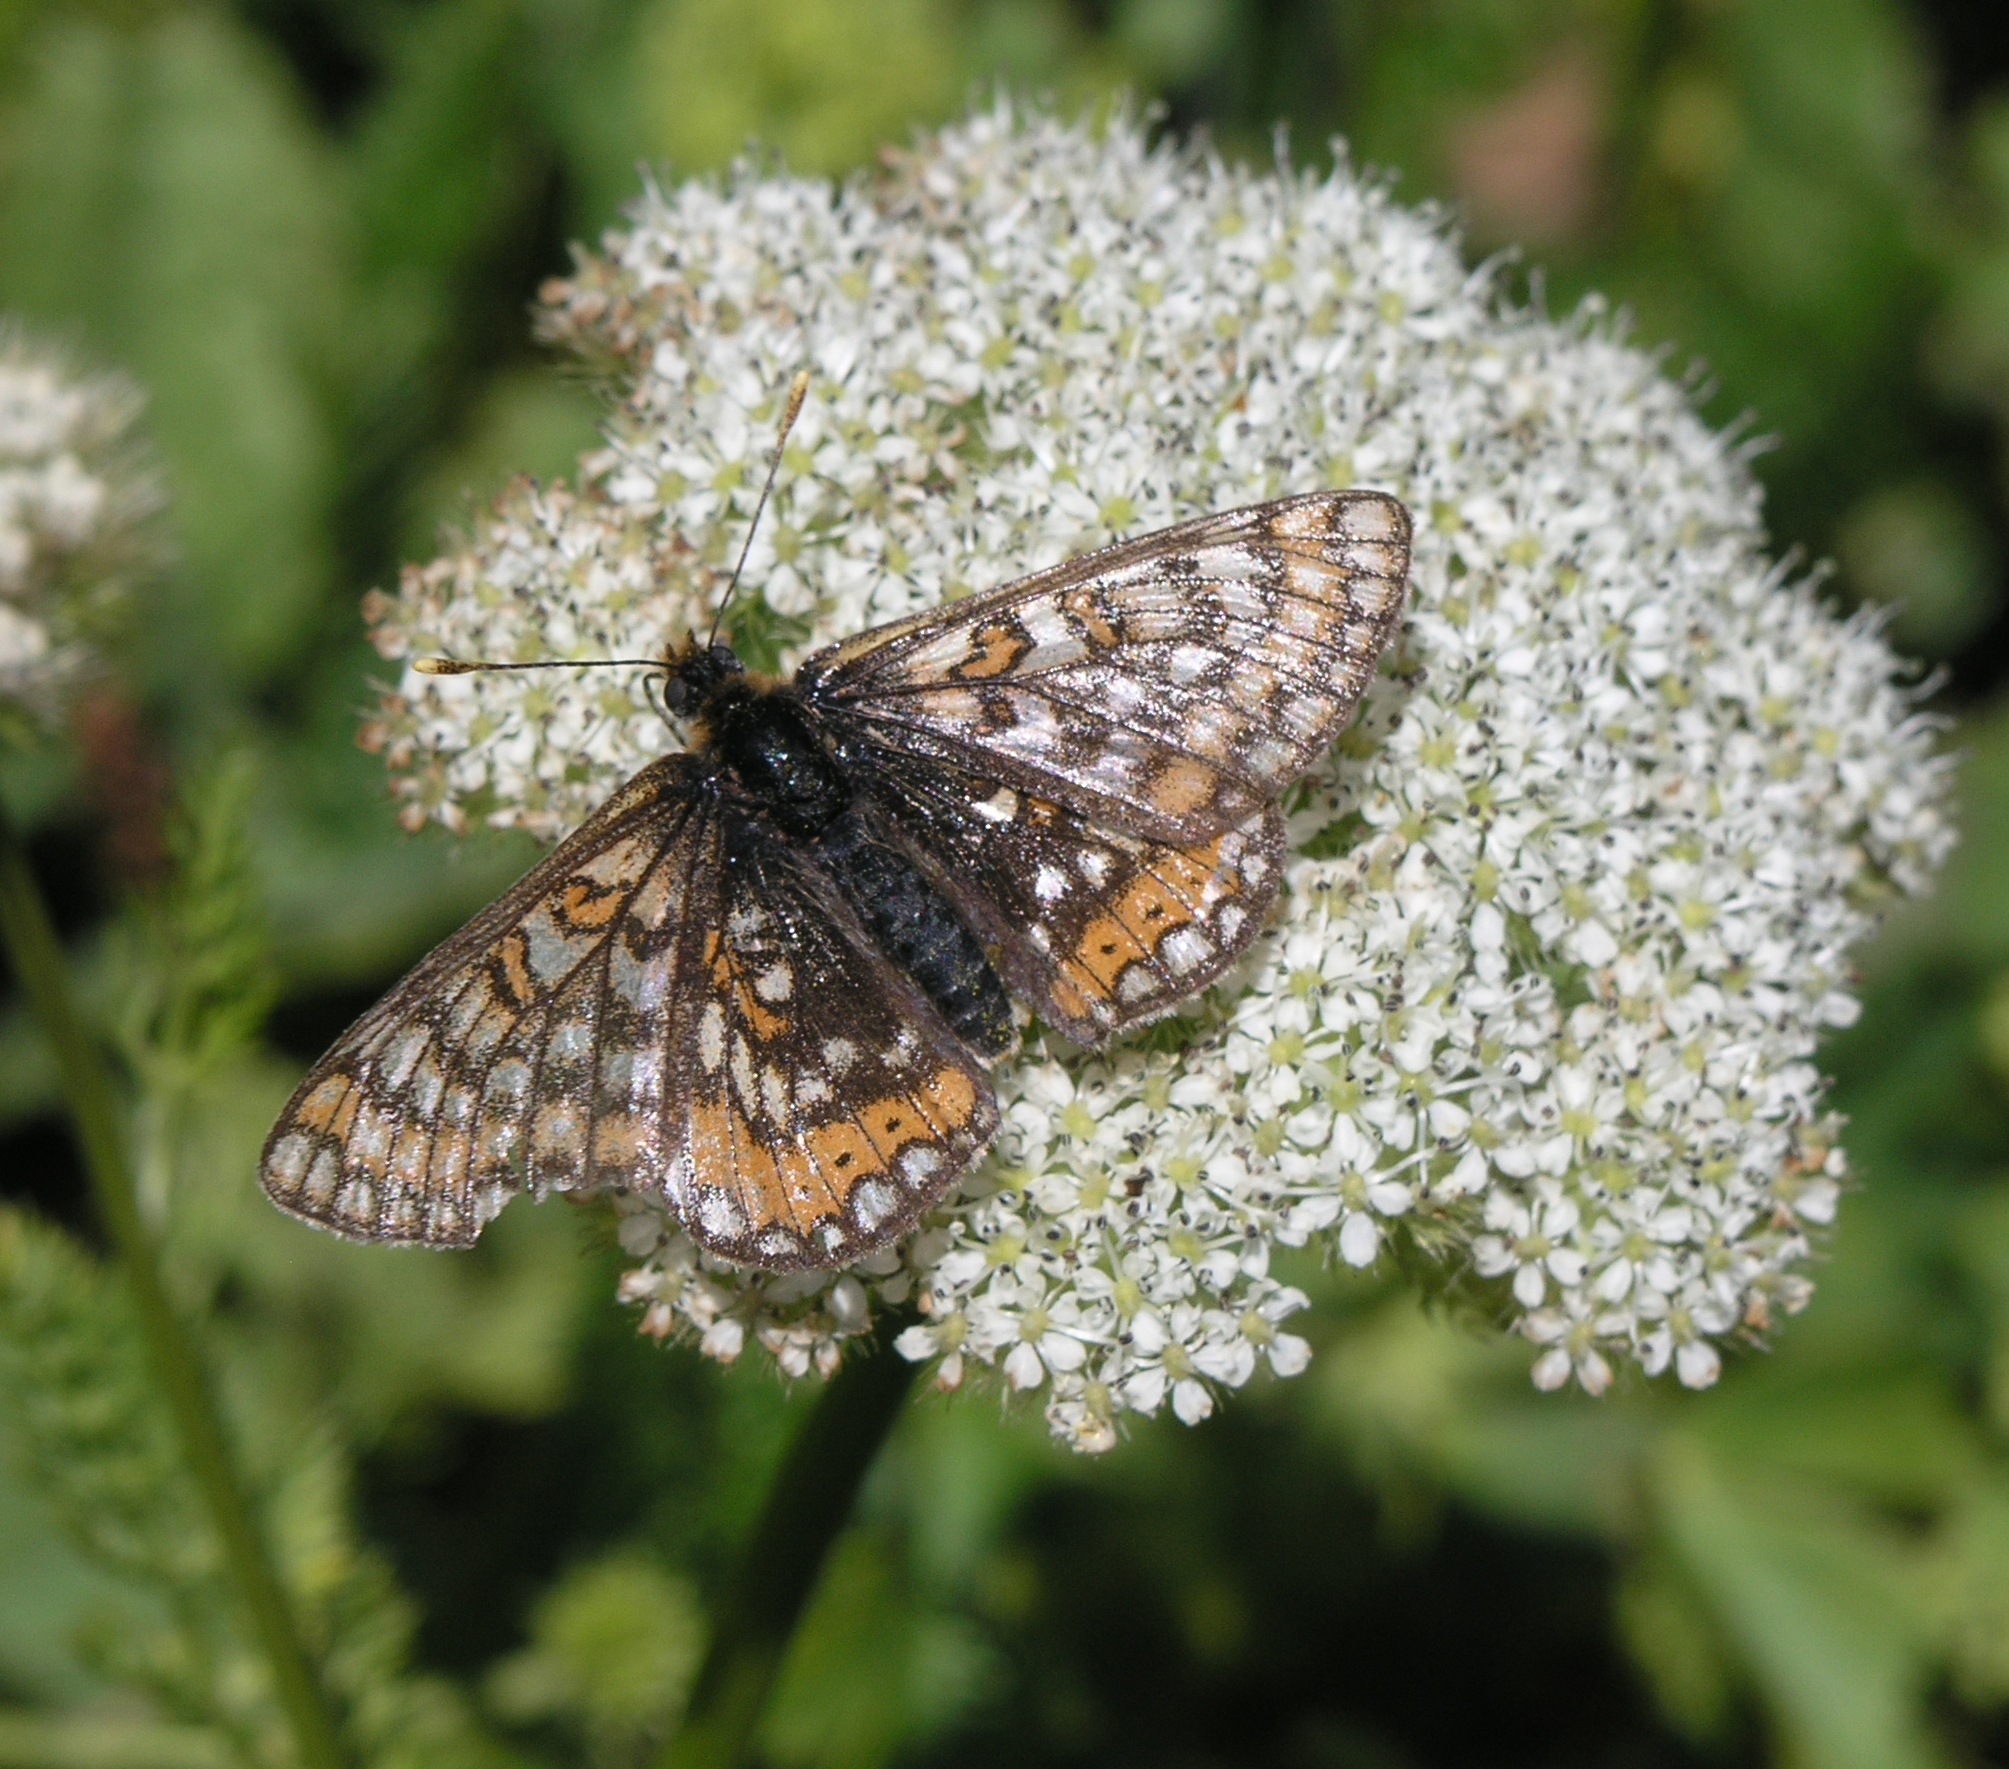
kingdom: Animalia
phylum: Arthropoda
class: Insecta
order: Lepidoptera
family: Nymphalidae
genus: Euphydryas
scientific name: Euphydryas aurinia
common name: Marsh fritillary
